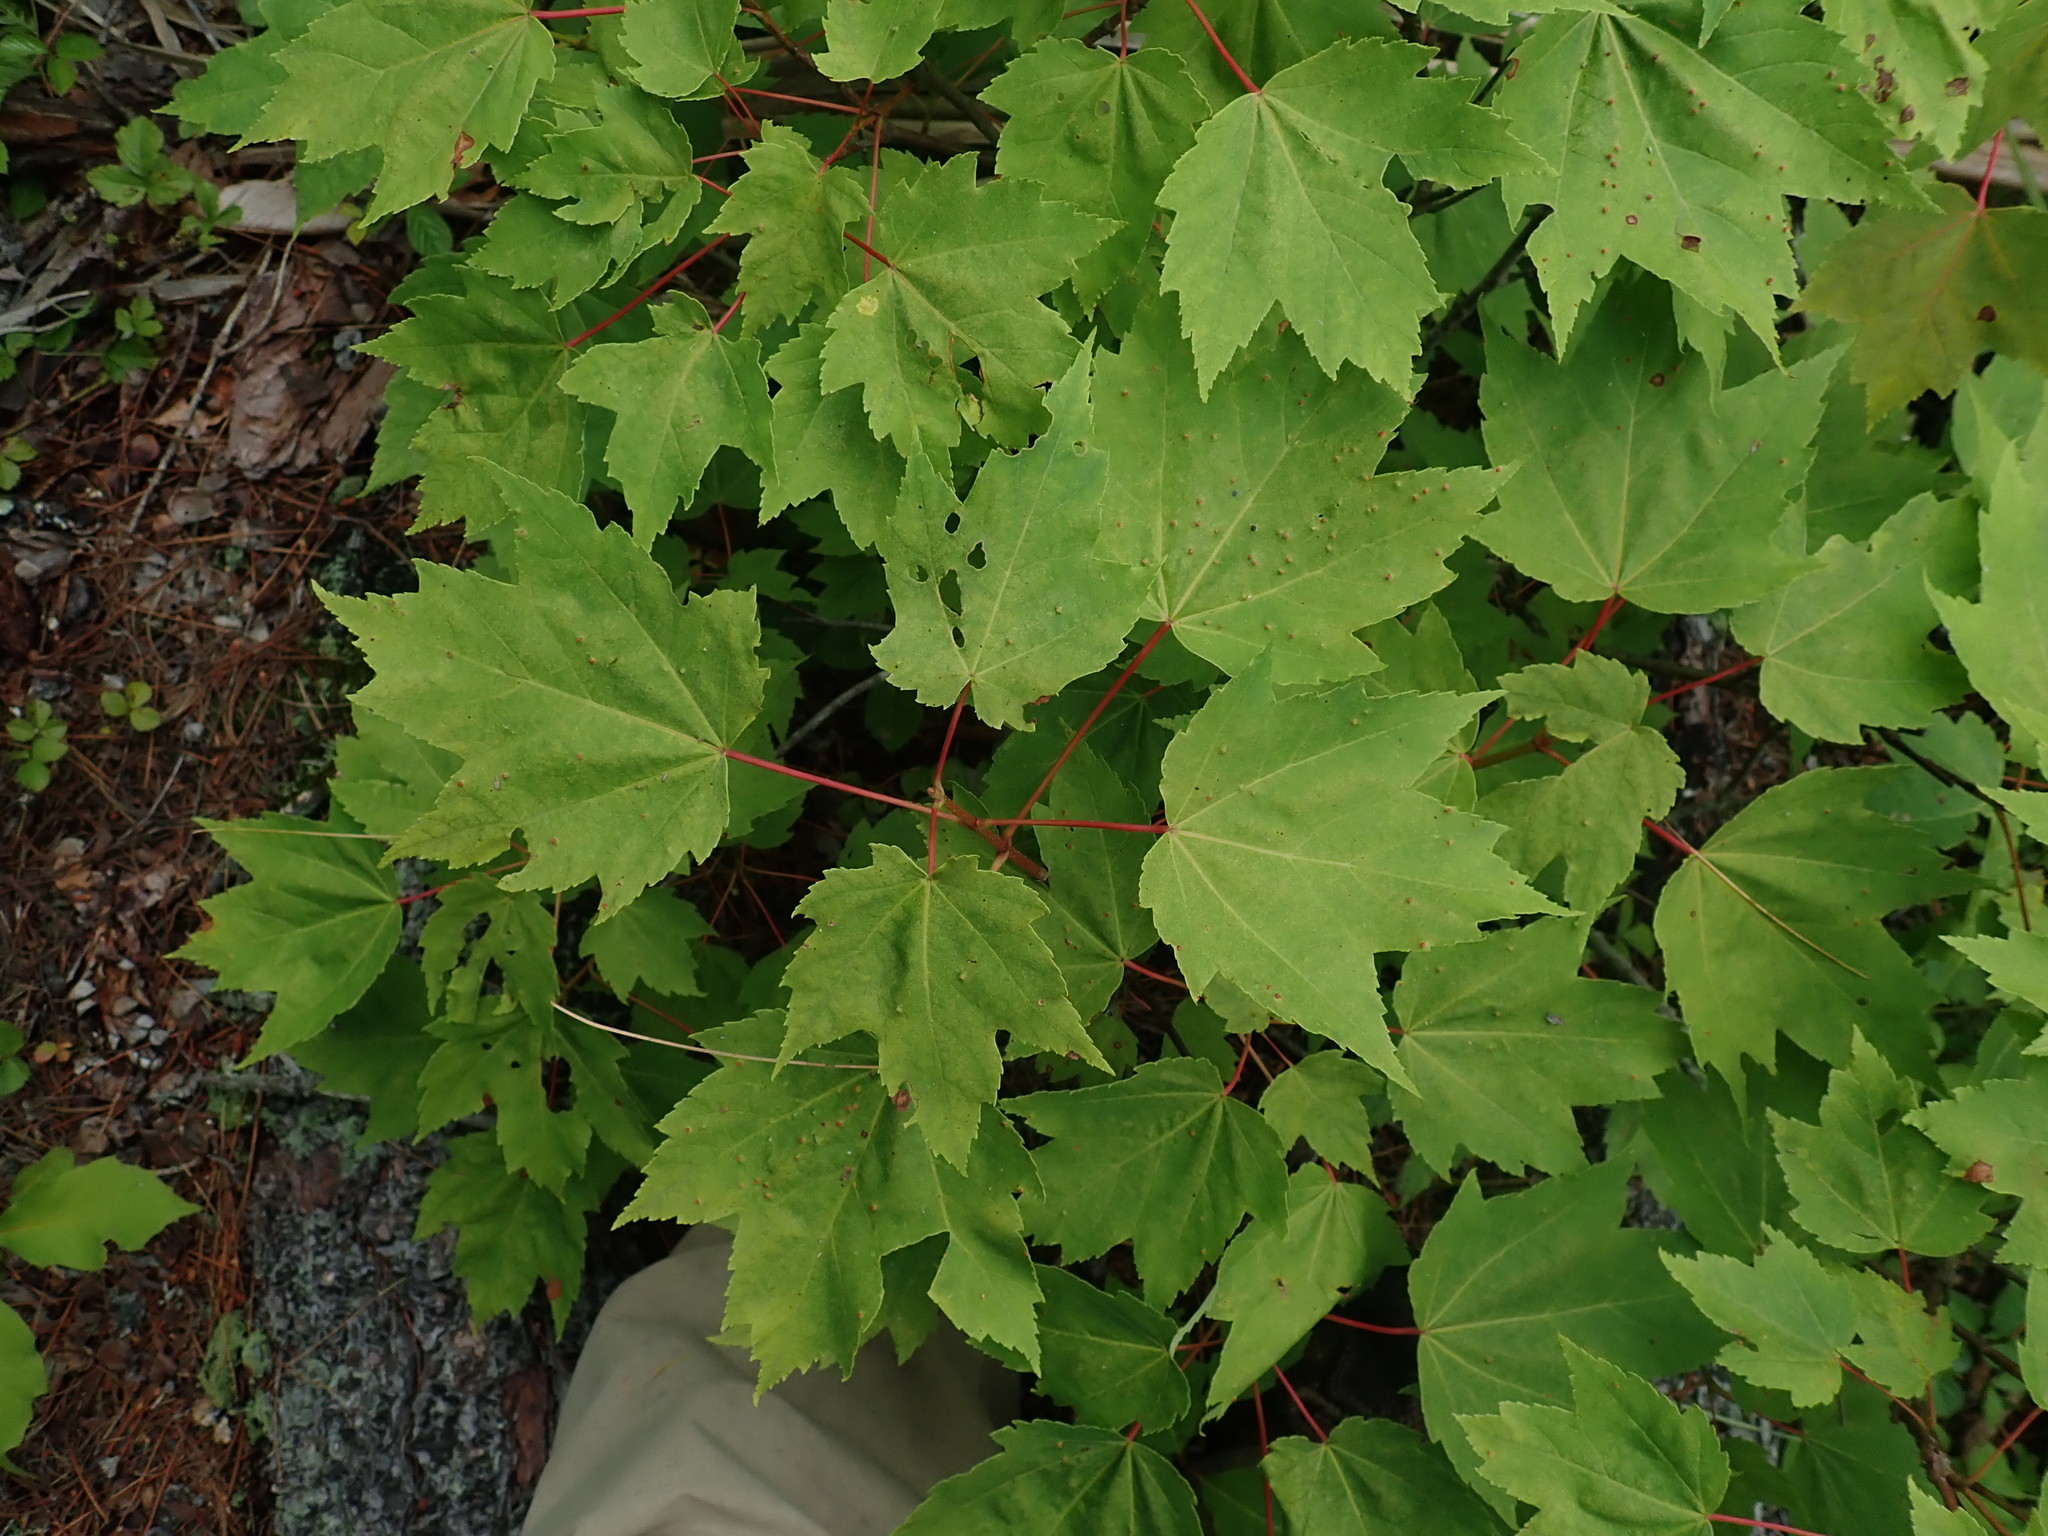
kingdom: Plantae
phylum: Tracheophyta
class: Magnoliopsida
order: Sapindales
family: Sapindaceae
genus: Acer
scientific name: Acer rubrum
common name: Red maple
